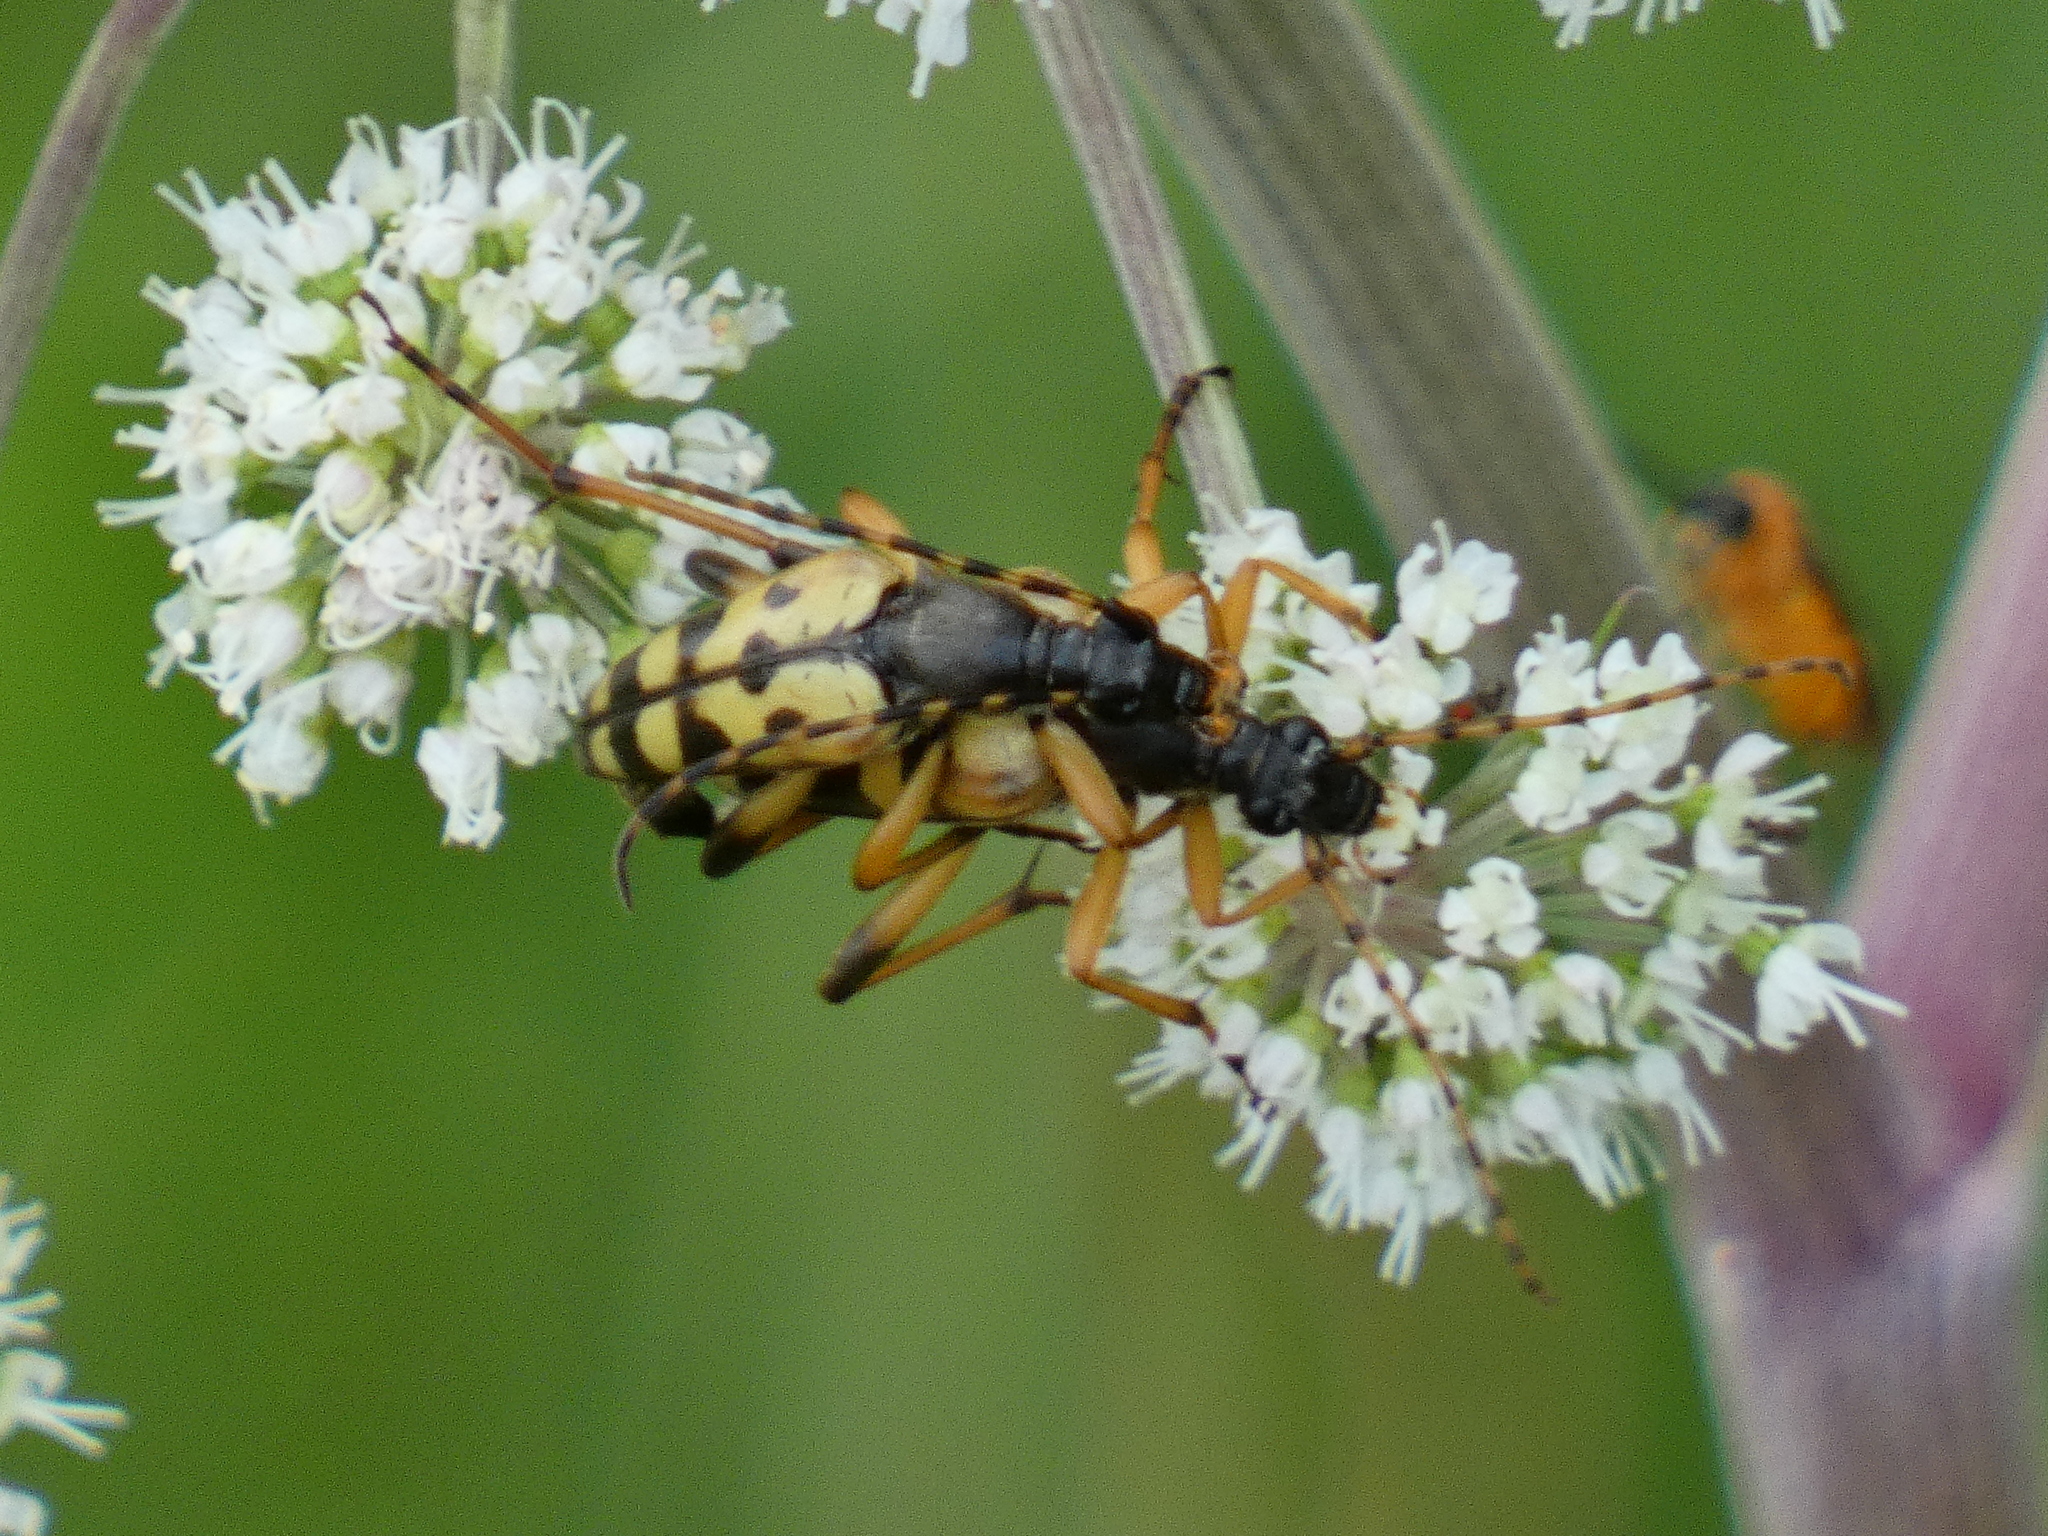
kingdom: Animalia
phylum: Arthropoda
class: Insecta
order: Coleoptera
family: Cerambycidae
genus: Rutpela
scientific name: Rutpela maculata
